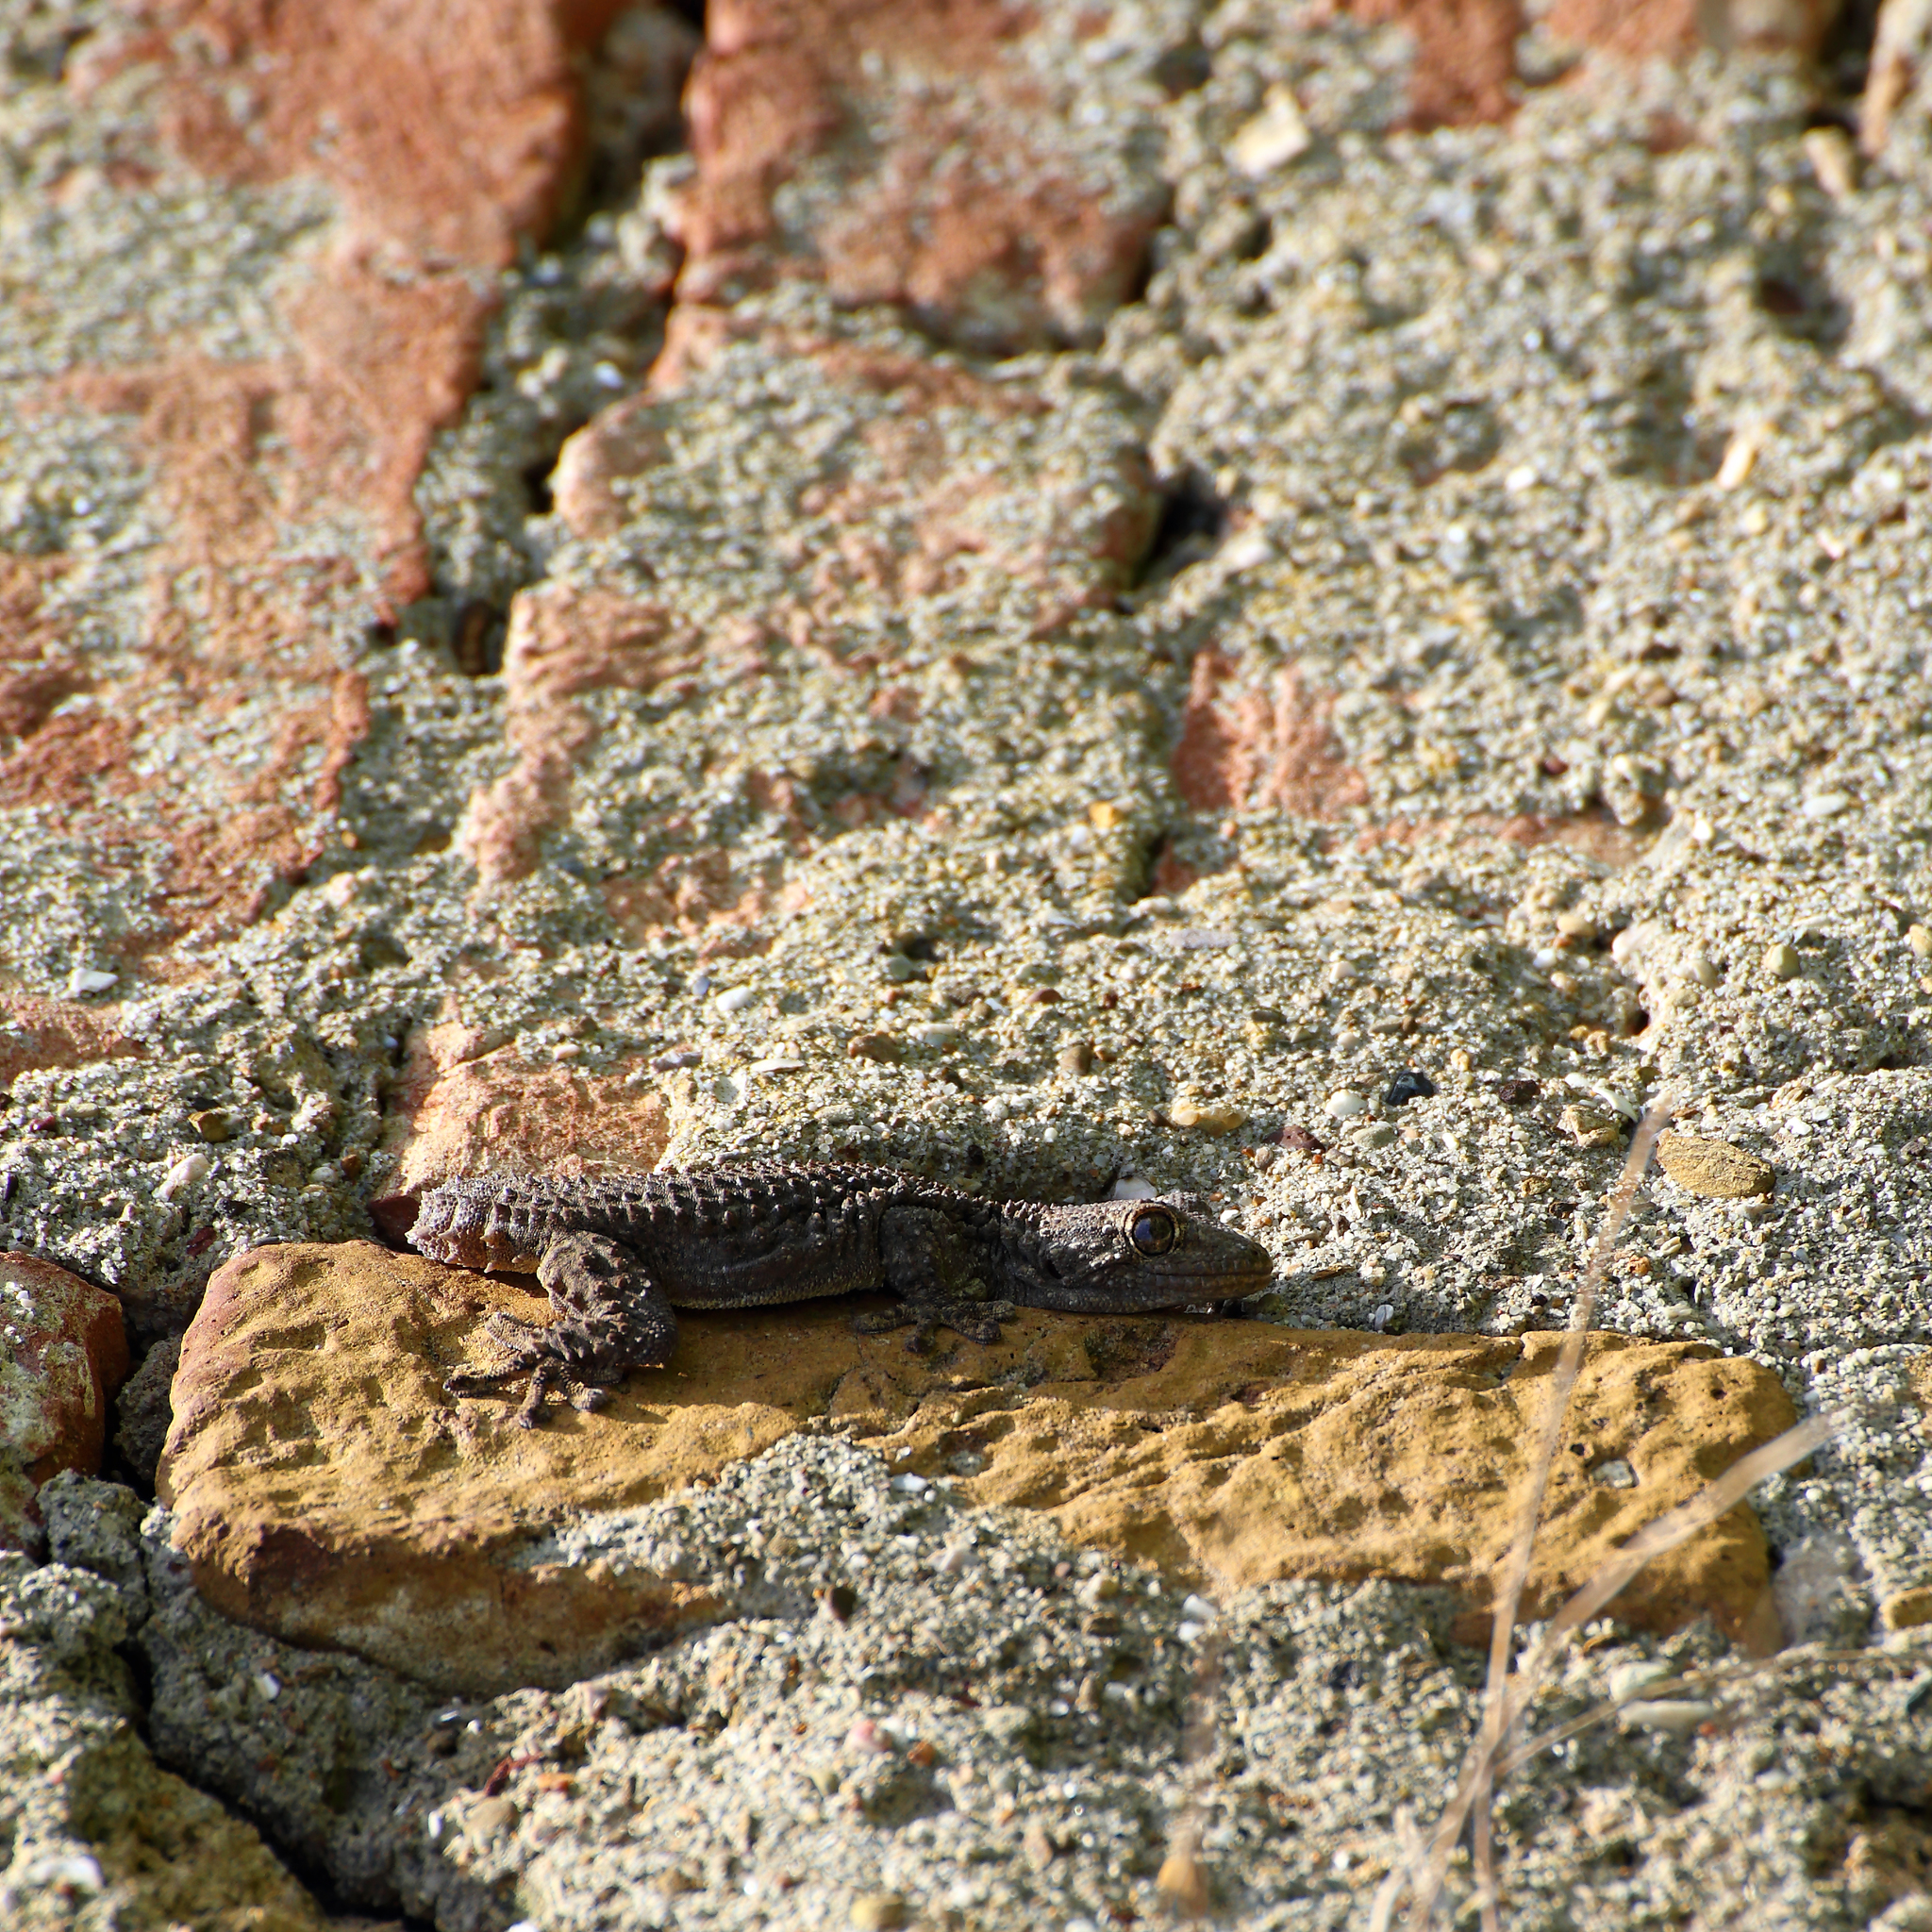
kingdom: Animalia
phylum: Chordata
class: Squamata
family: Phyllodactylidae
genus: Tarentola
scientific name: Tarentola mauritanica
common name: Moorish gecko
